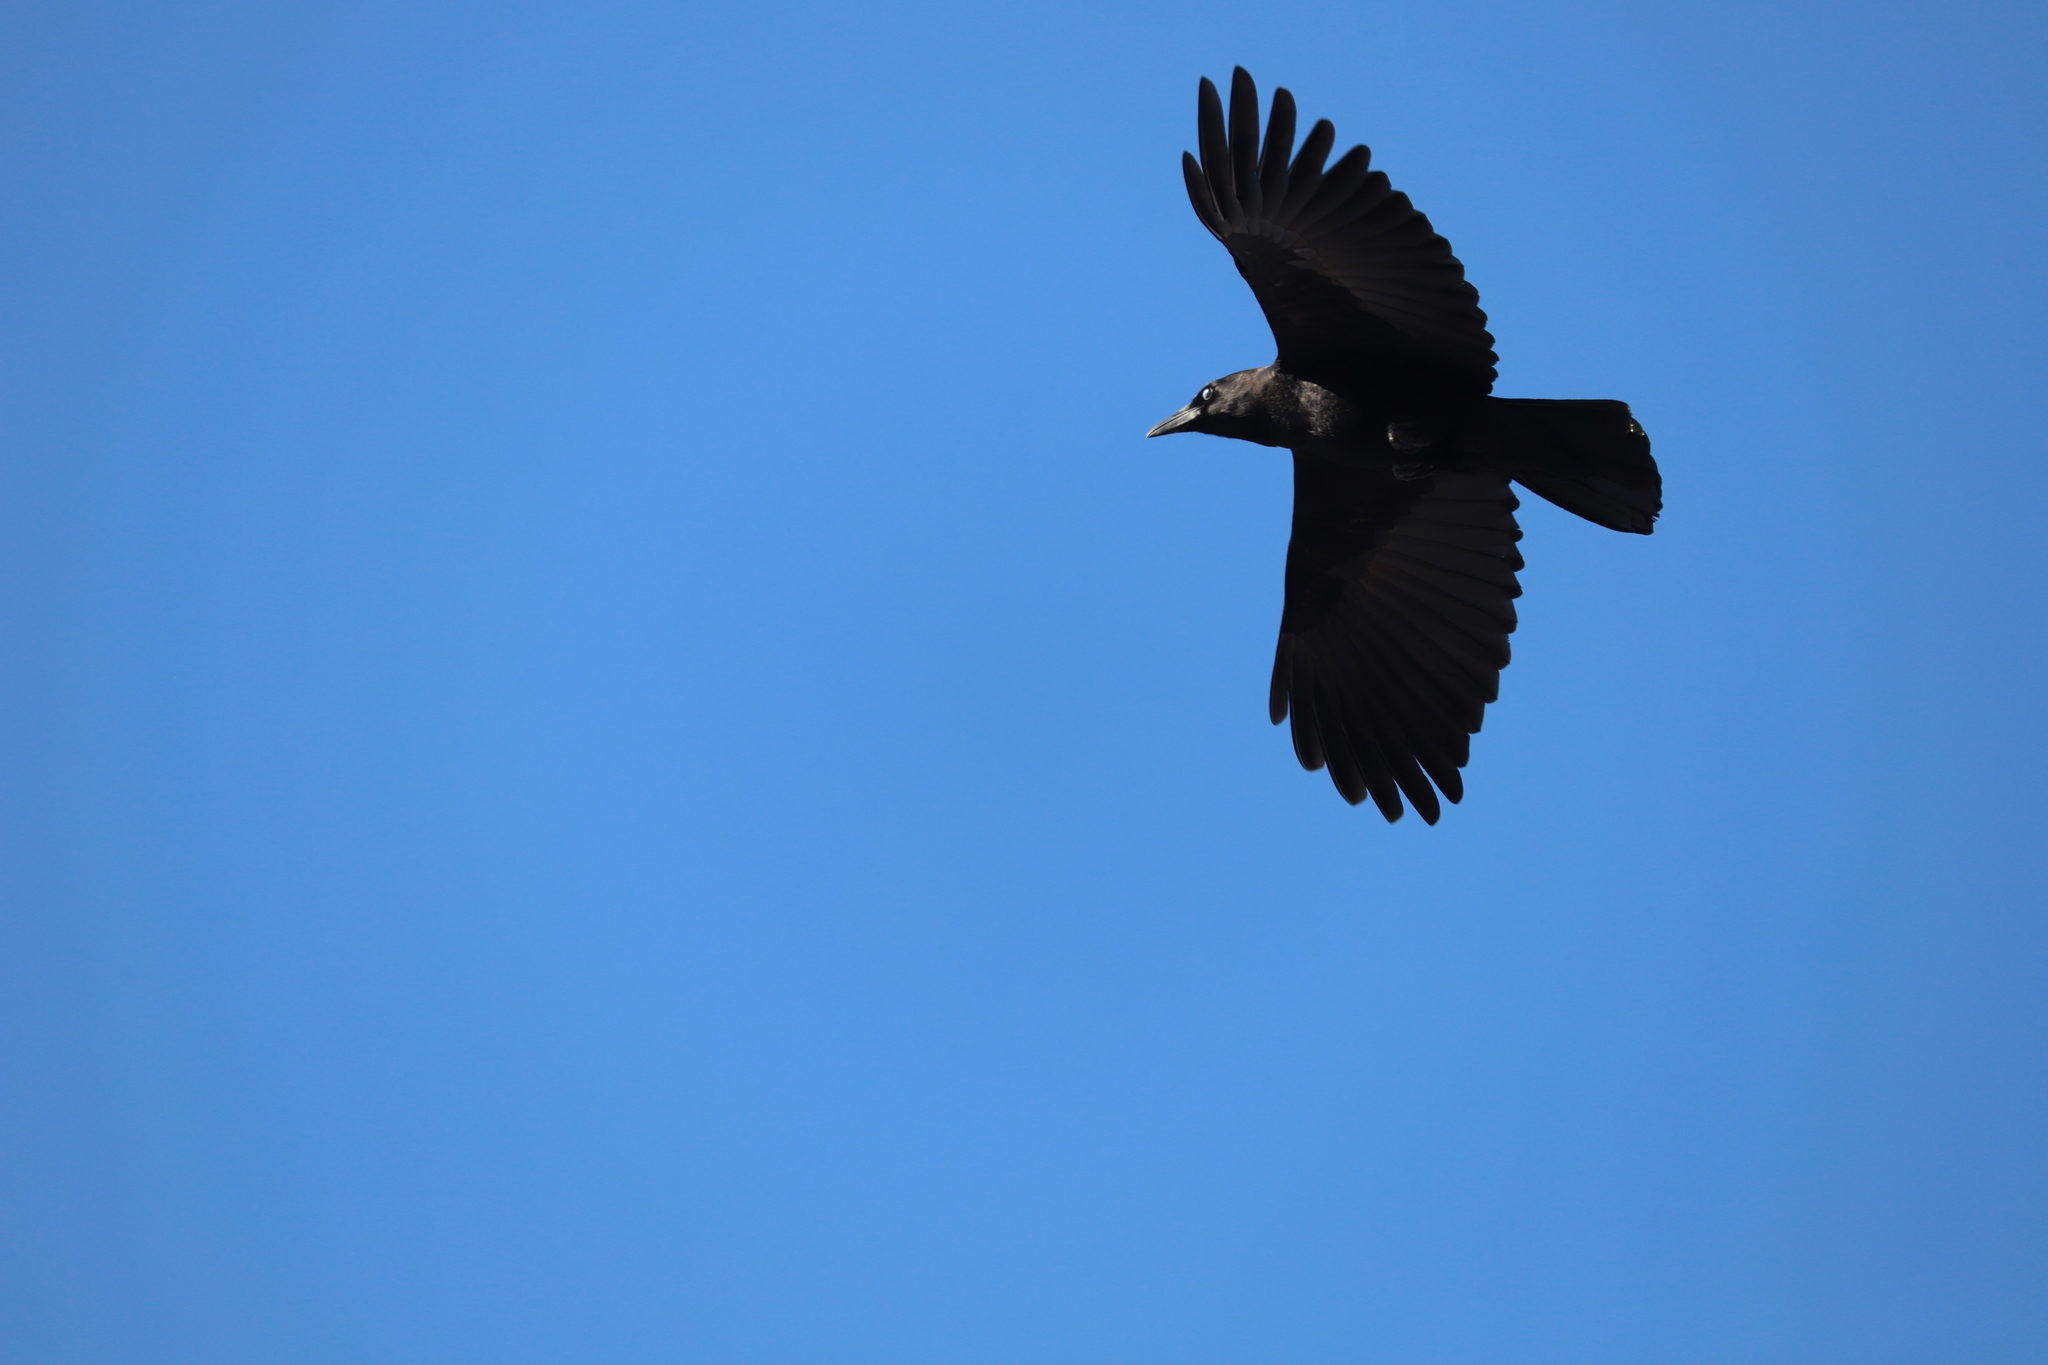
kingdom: Animalia
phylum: Chordata
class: Aves
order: Passeriformes
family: Corvidae
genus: Corvus
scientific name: Corvus brachyrhynchos
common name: American crow
